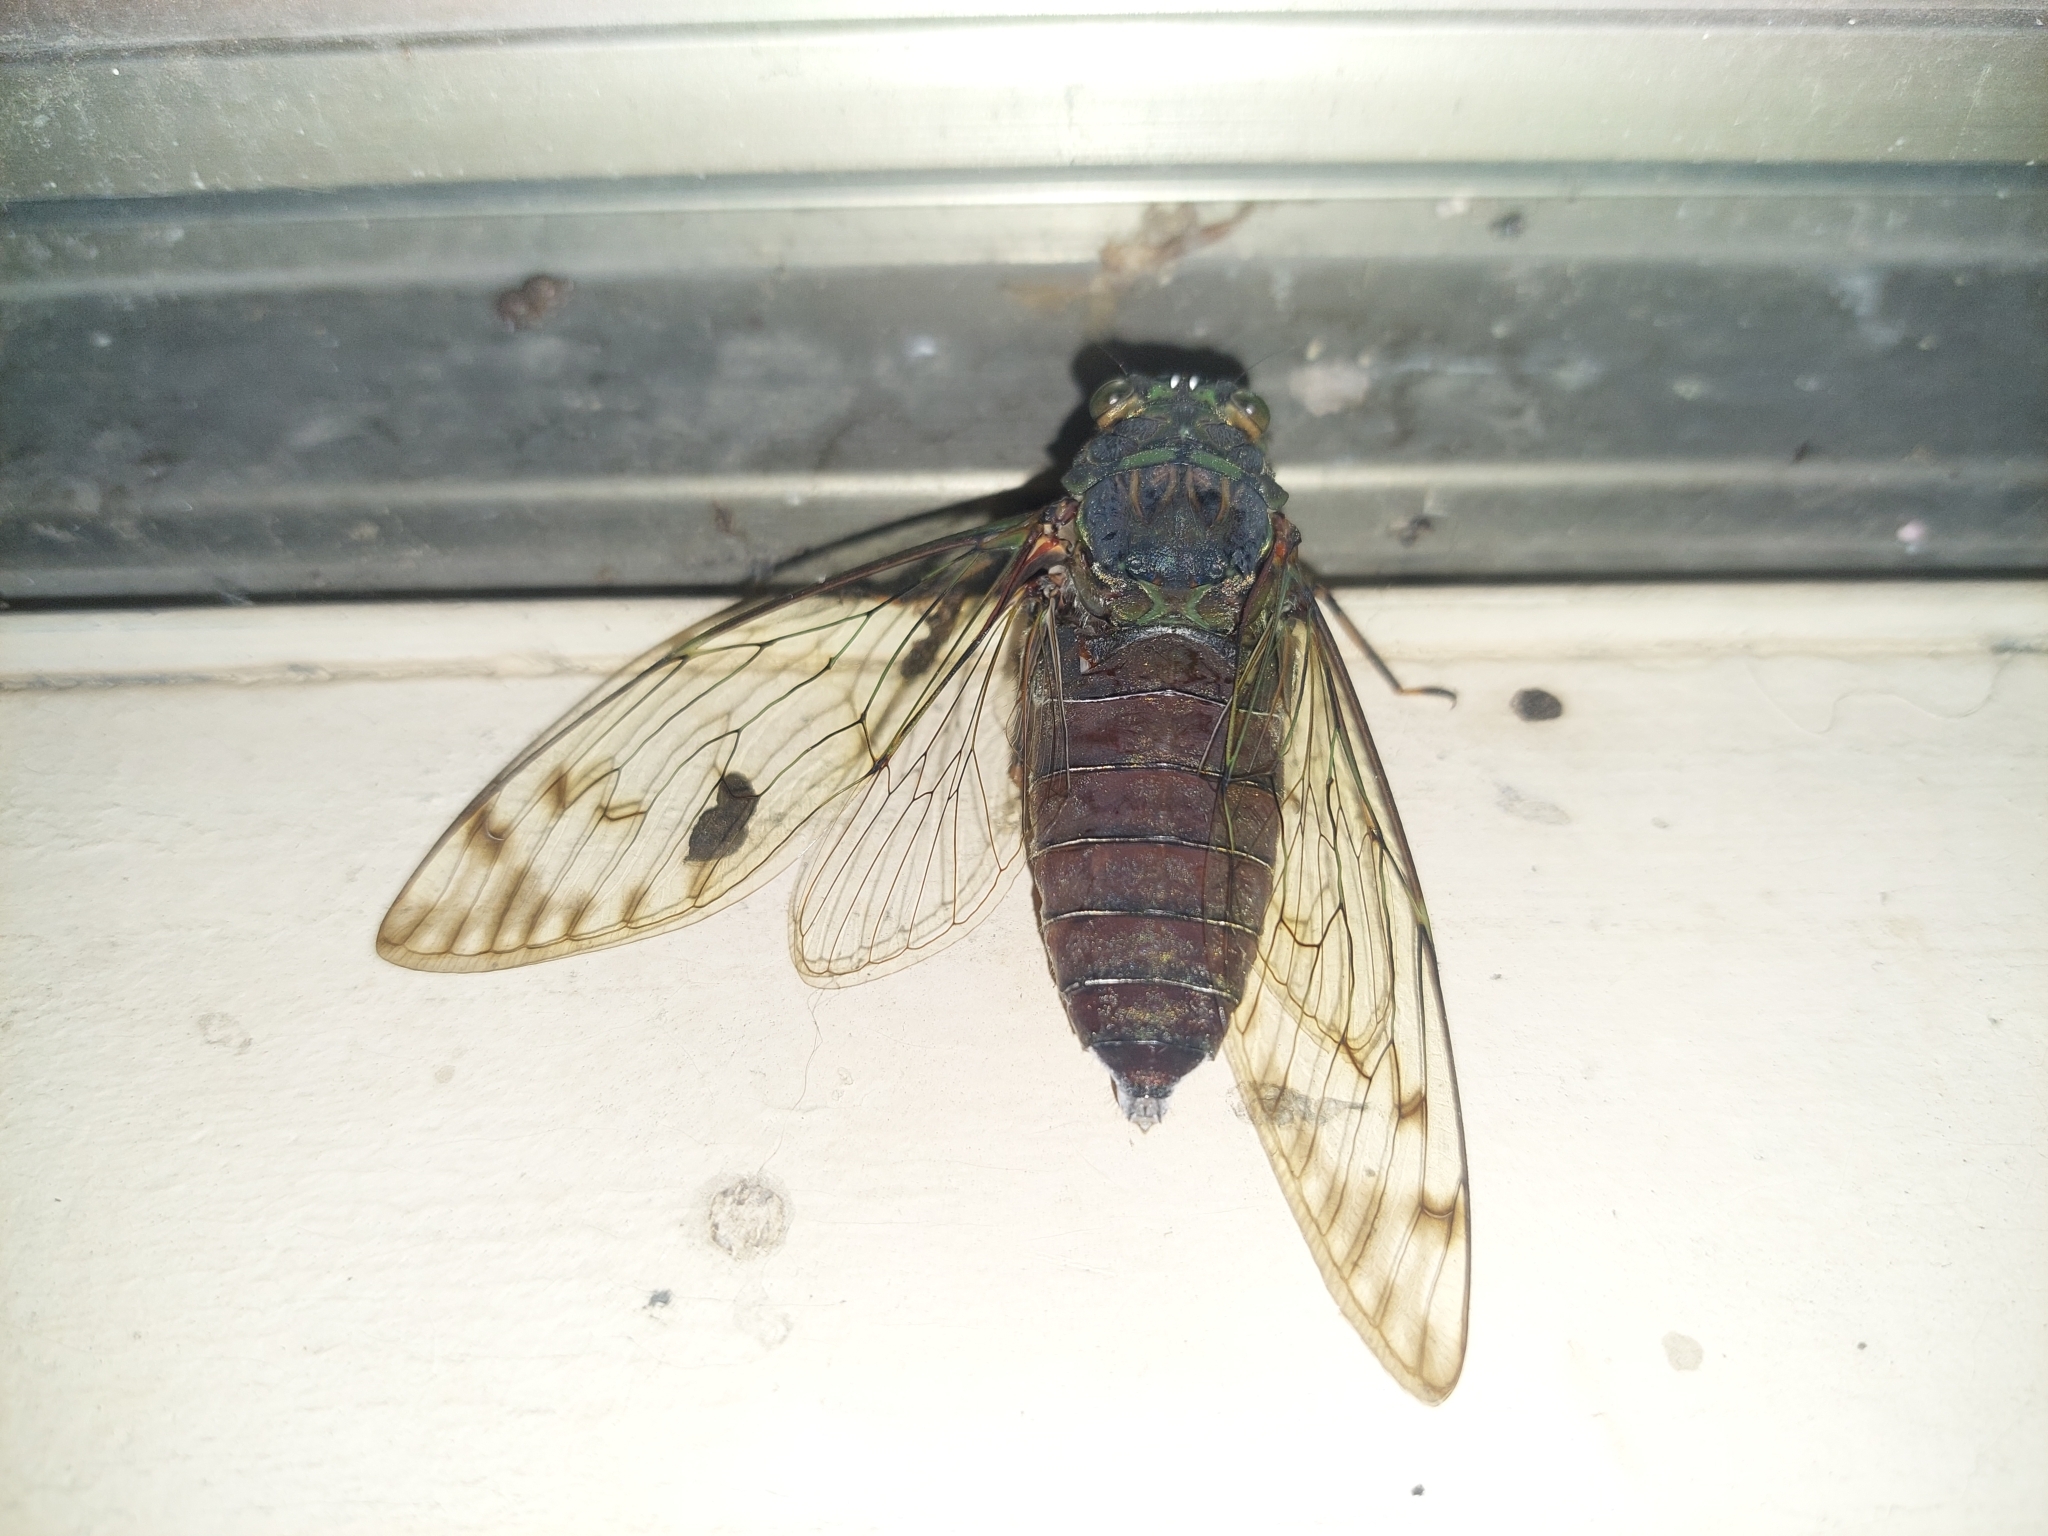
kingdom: Animalia
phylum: Arthropoda
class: Insecta
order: Hemiptera
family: Cicadidae
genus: Pomponia
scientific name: Pomponia yayeyamana
